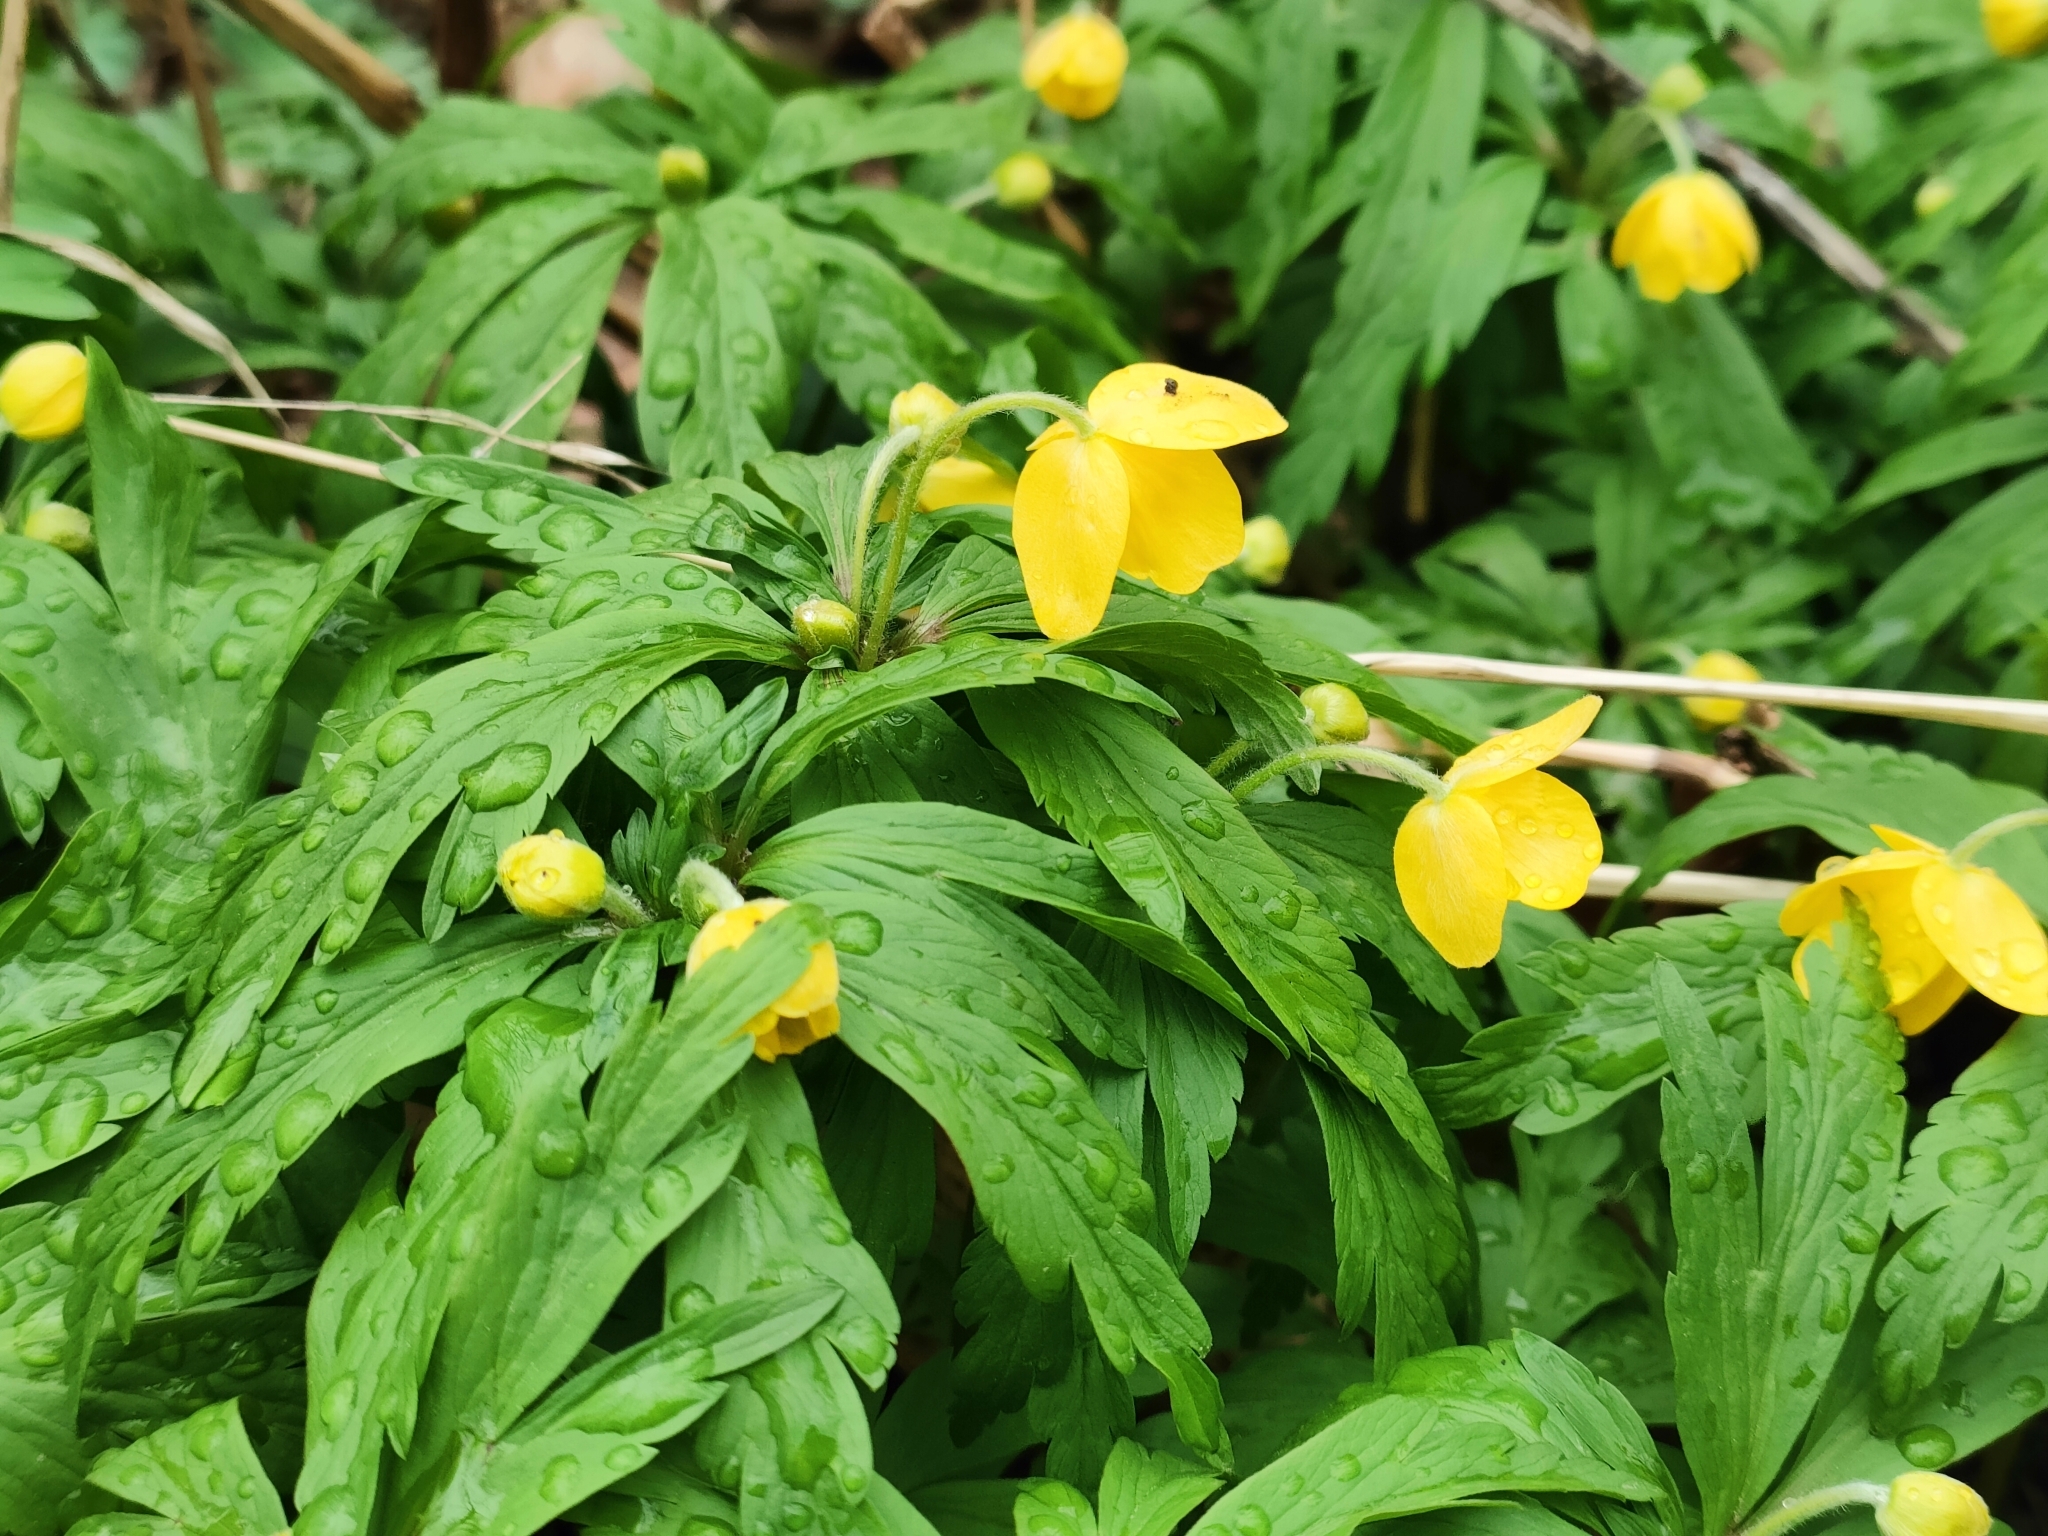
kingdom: Plantae
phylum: Tracheophyta
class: Magnoliopsida
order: Ranunculales
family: Ranunculaceae
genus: Anemone
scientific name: Anemone ranunculoides
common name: Yellow anemone
